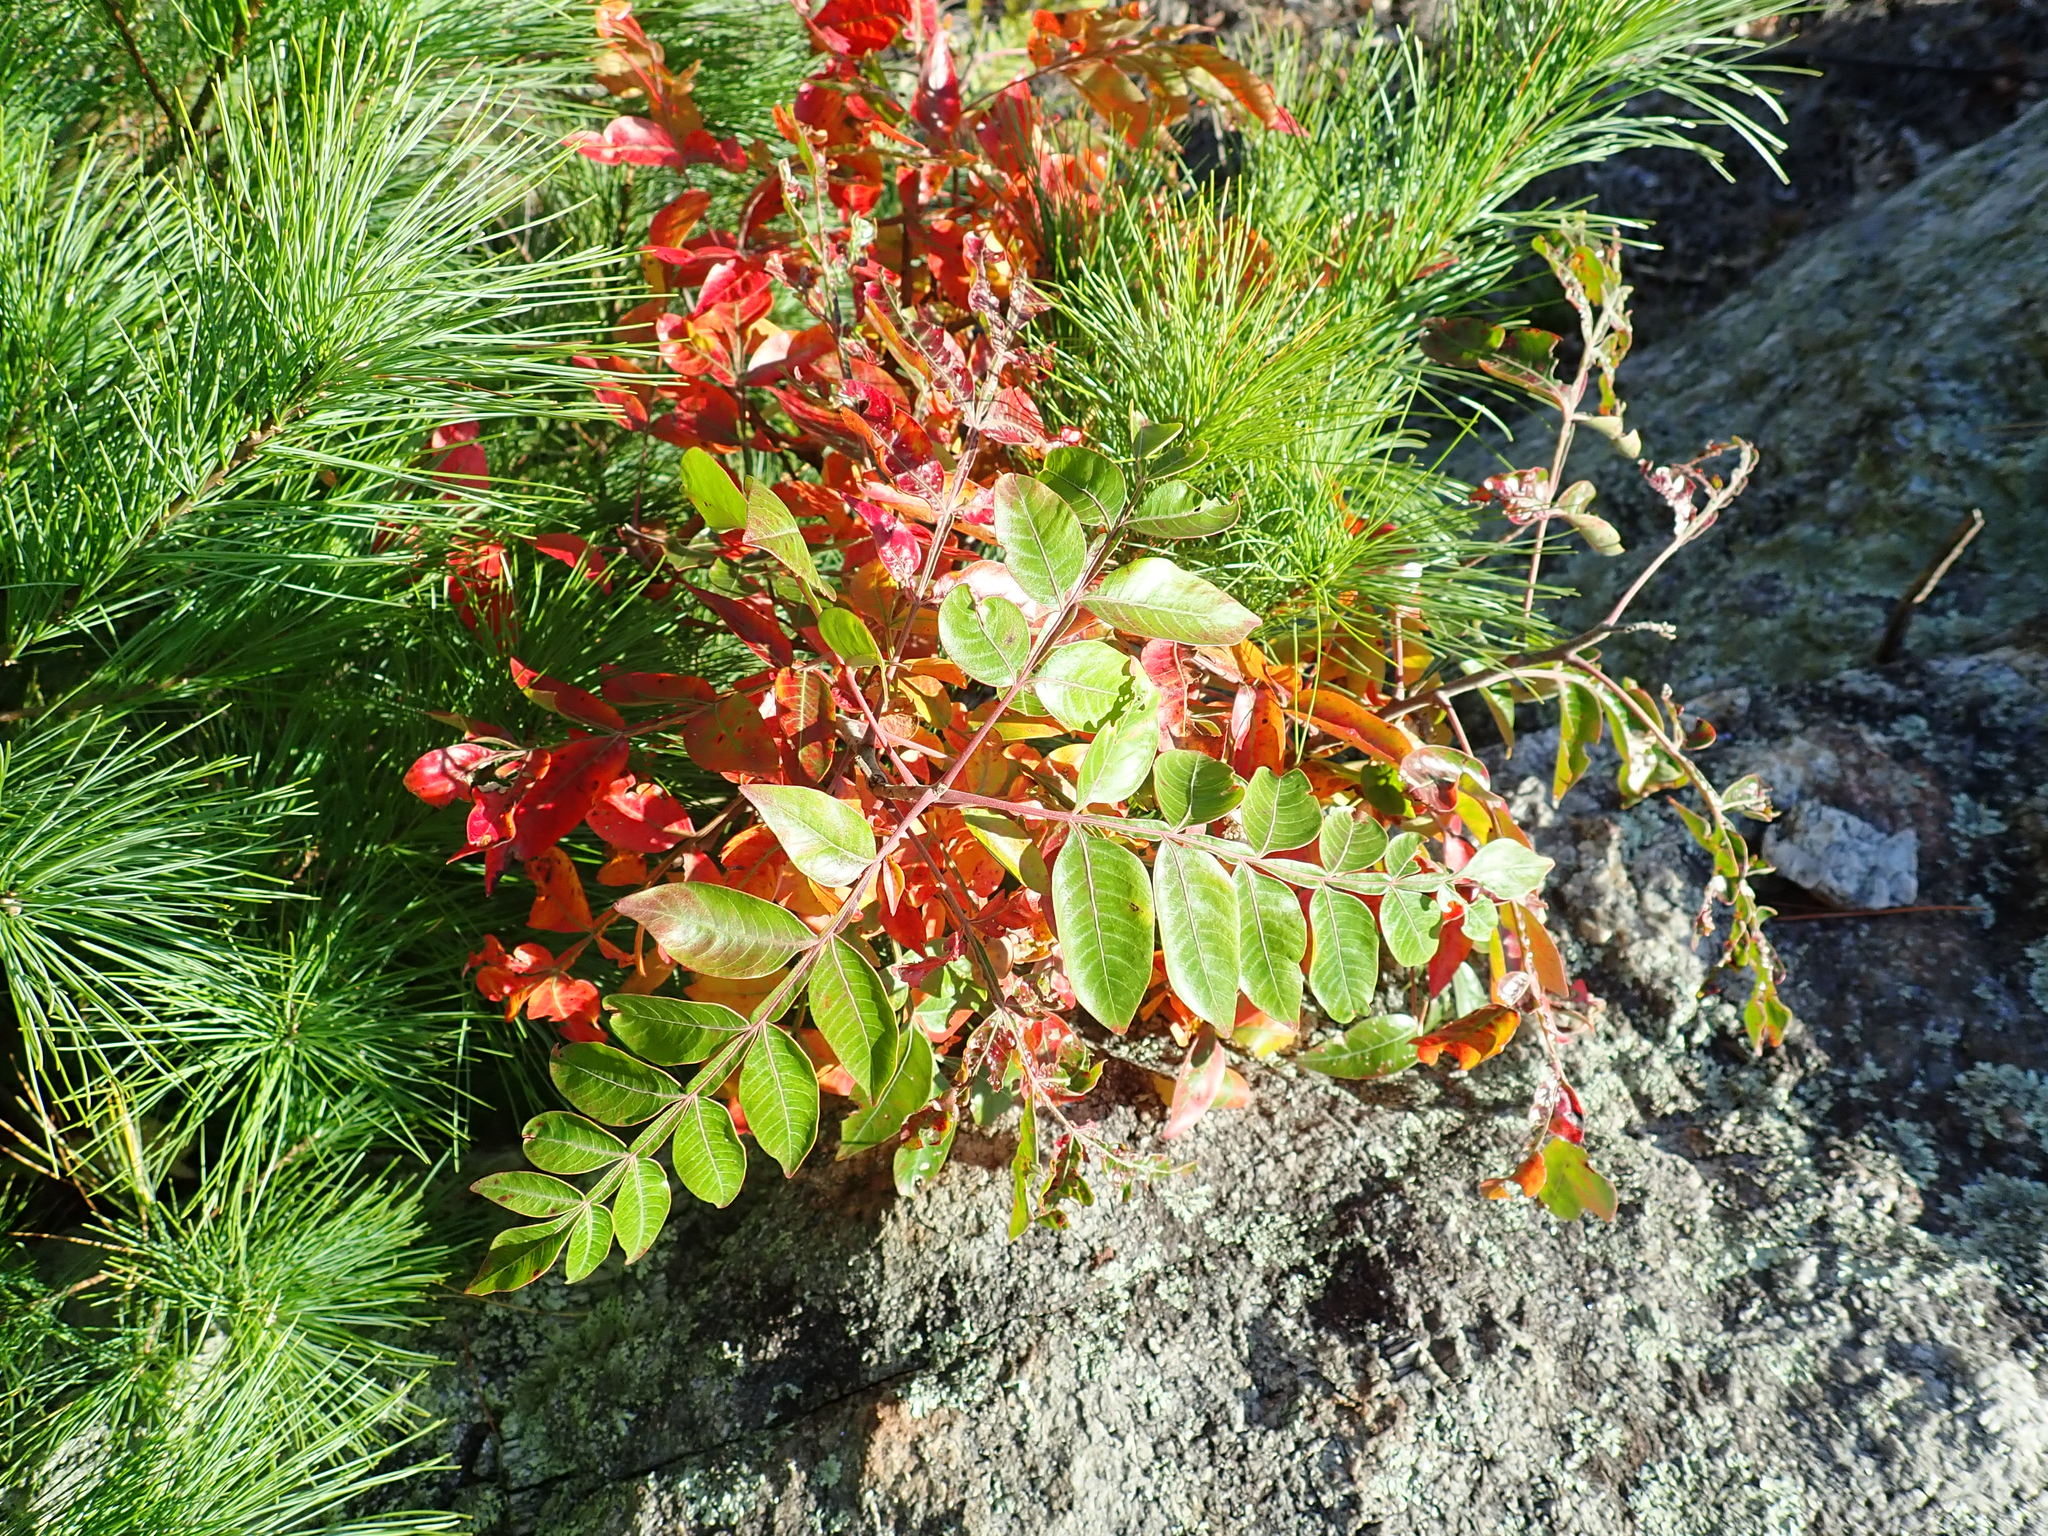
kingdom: Plantae
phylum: Tracheophyta
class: Magnoliopsida
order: Sapindales
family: Anacardiaceae
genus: Rhus
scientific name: Rhus copallina
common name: Shining sumac
